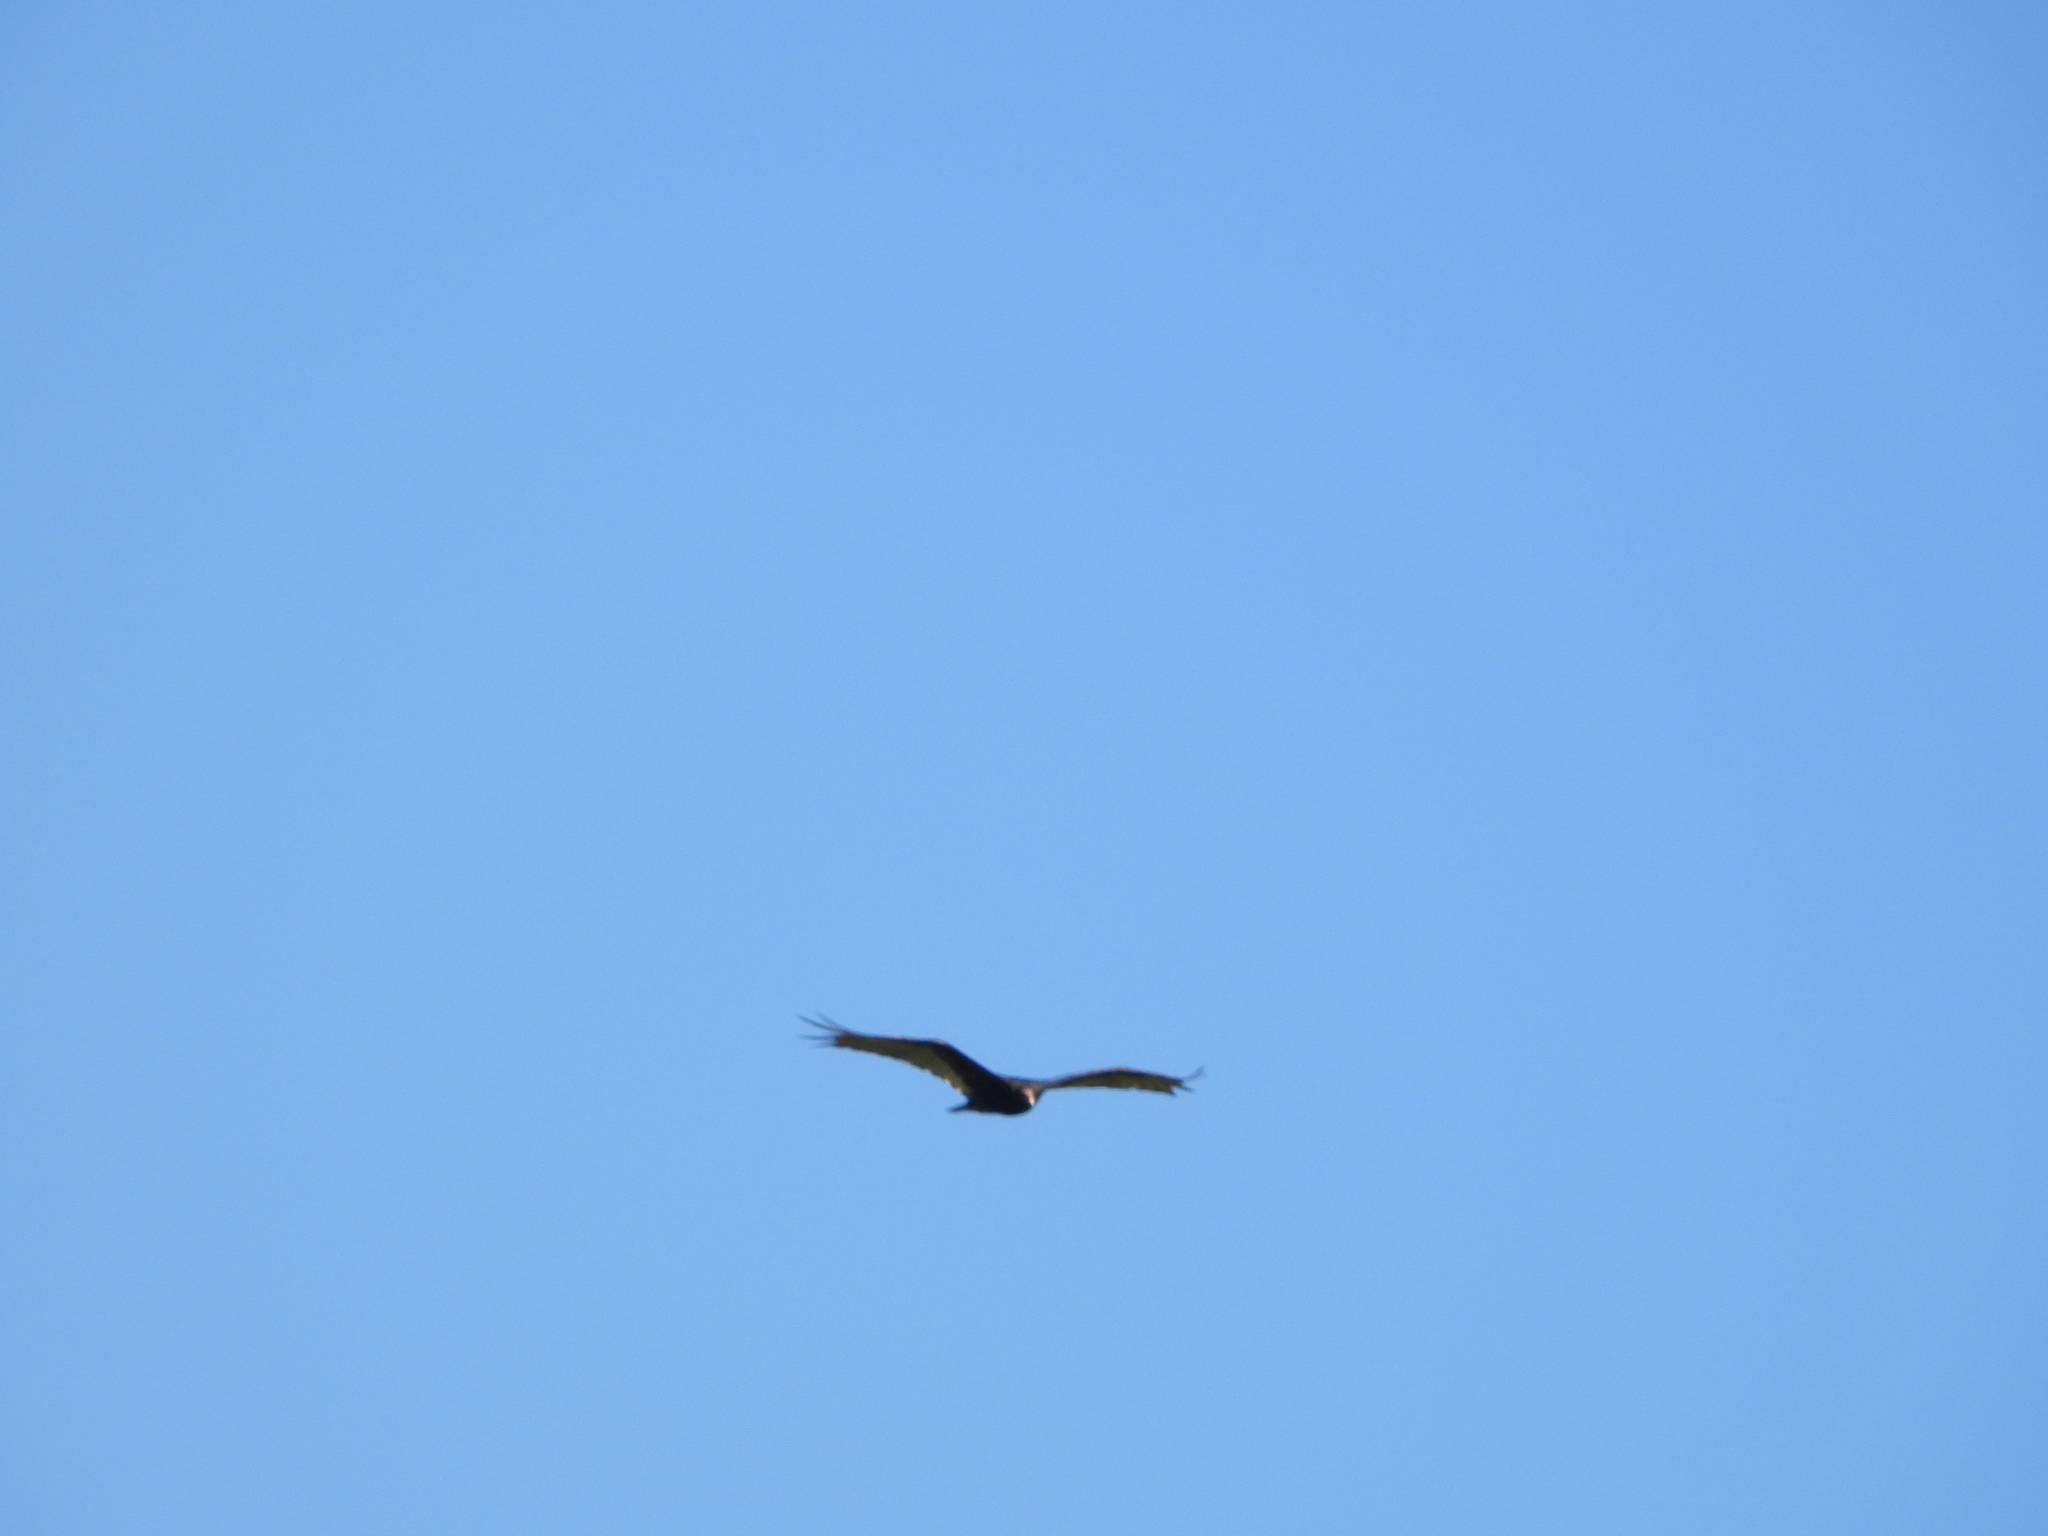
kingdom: Animalia
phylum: Chordata
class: Aves
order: Accipitriformes
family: Cathartidae
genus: Cathartes
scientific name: Cathartes aura
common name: Turkey vulture
